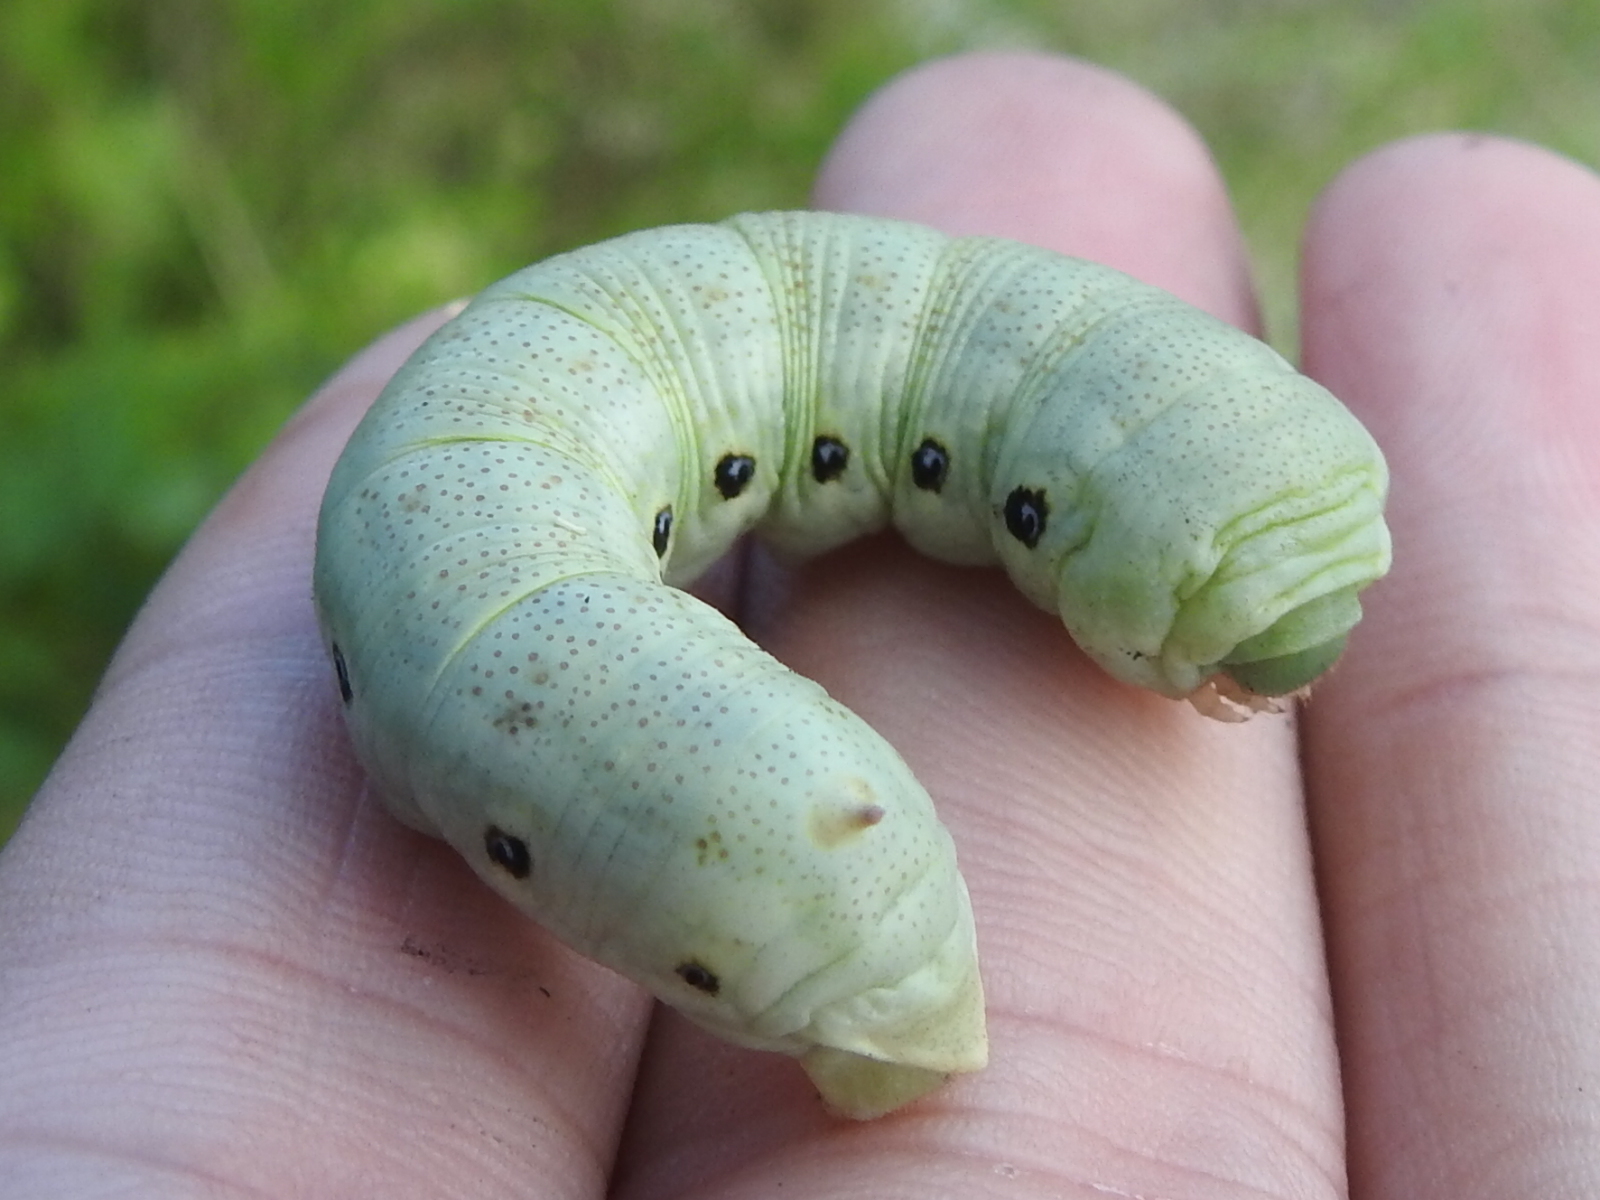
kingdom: Animalia
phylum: Arthropoda
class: Insecta
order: Lepidoptera
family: Sphingidae
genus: Proserpinus
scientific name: Proserpinus terlooii
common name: Terloo's sphinx
